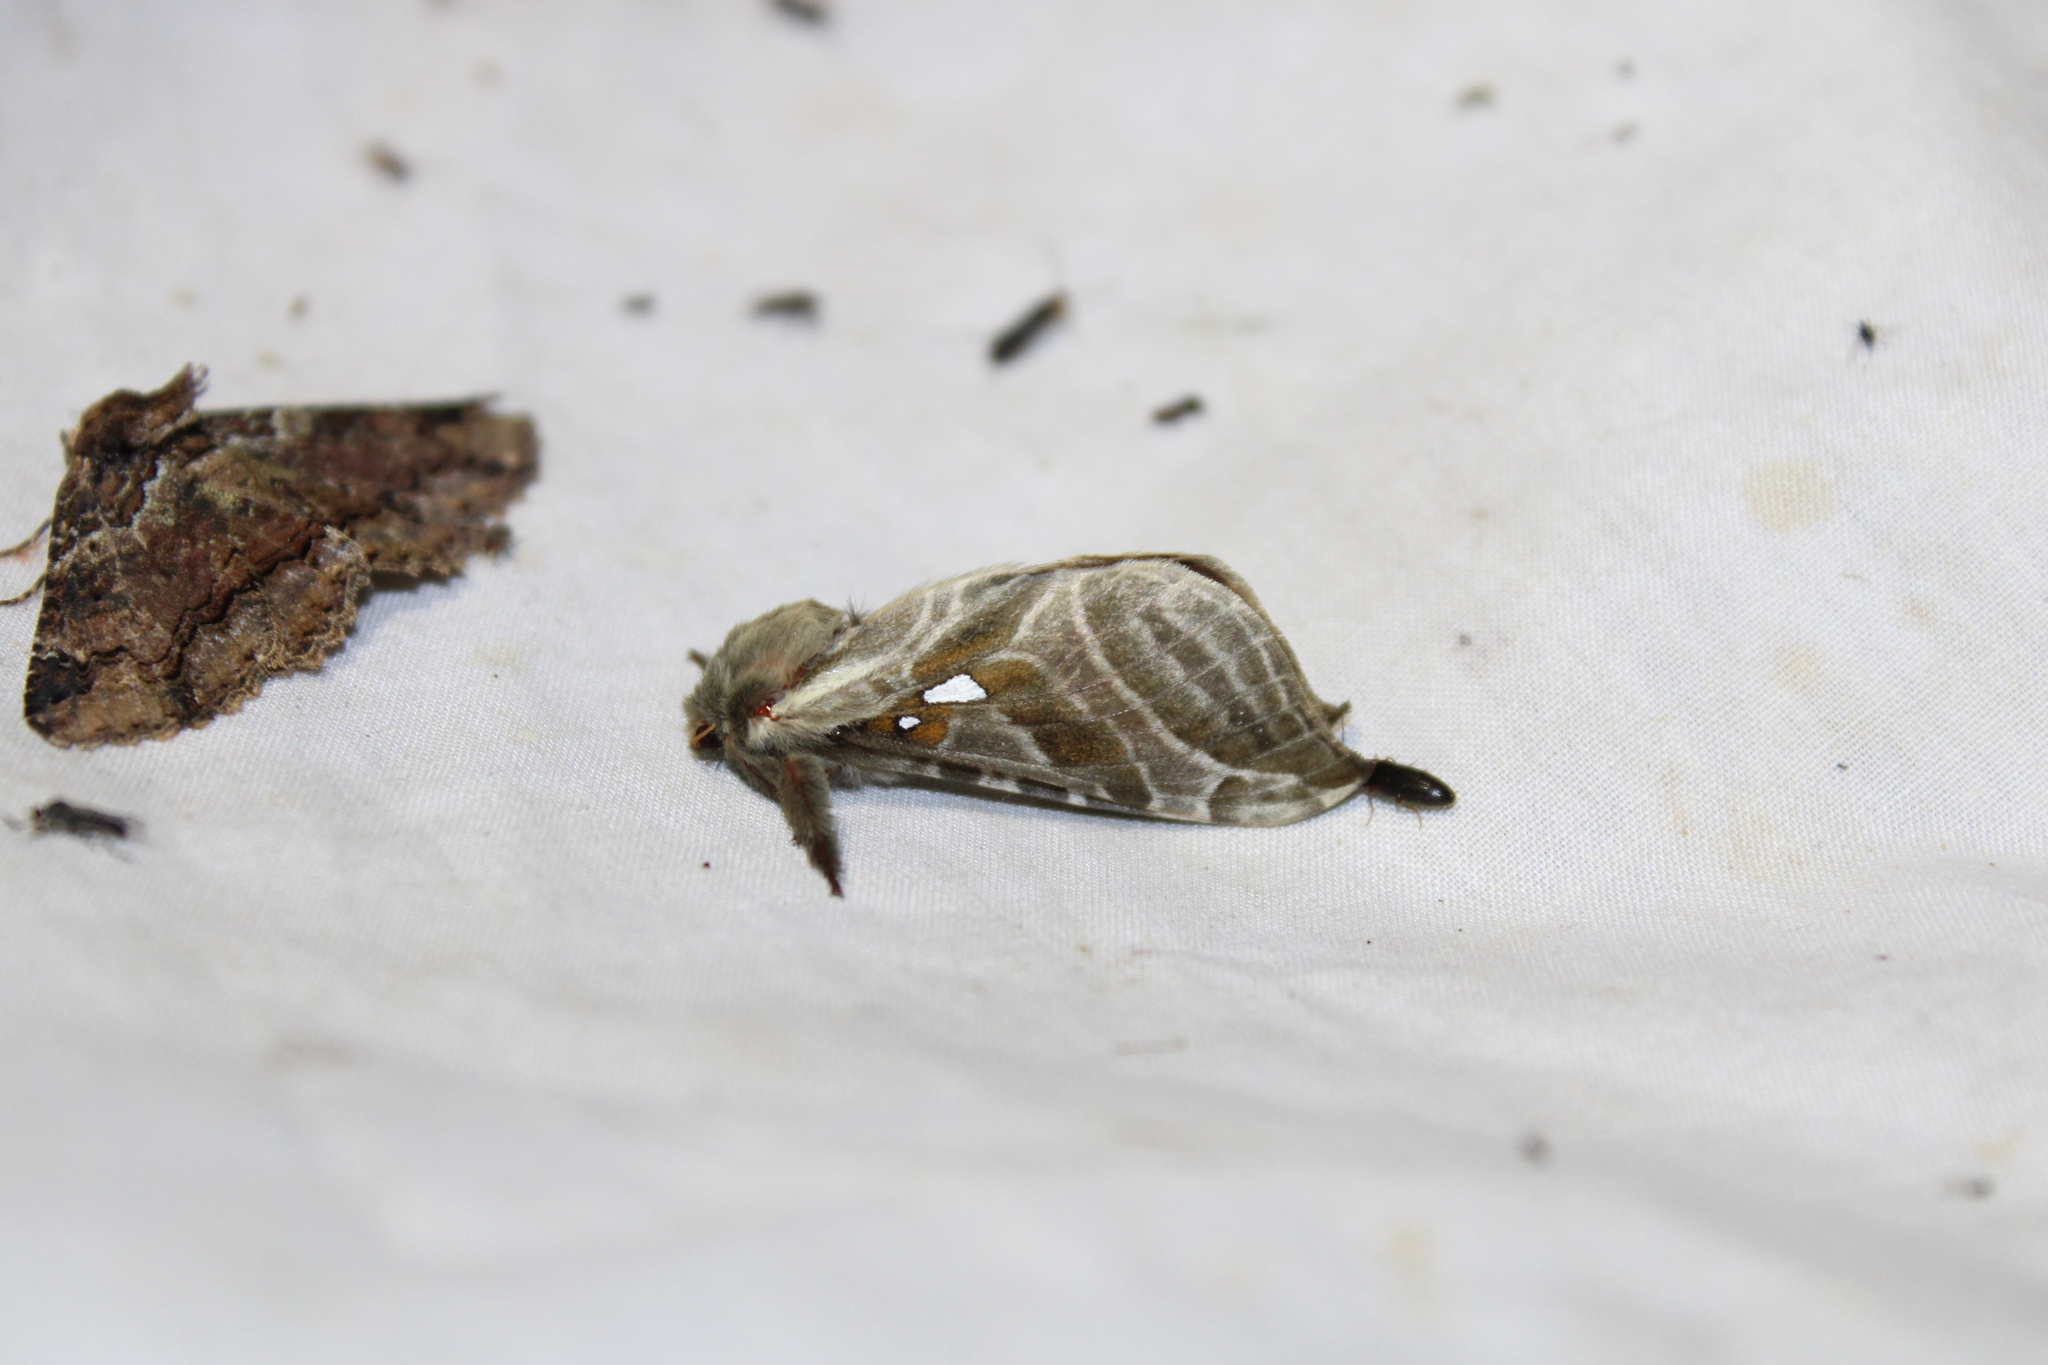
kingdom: Animalia
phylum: Arthropoda
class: Insecta
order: Lepidoptera
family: Hepialidae
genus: Sthenopis
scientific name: Sthenopis argenteomaculatus
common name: Silver-spotted ghost moth
